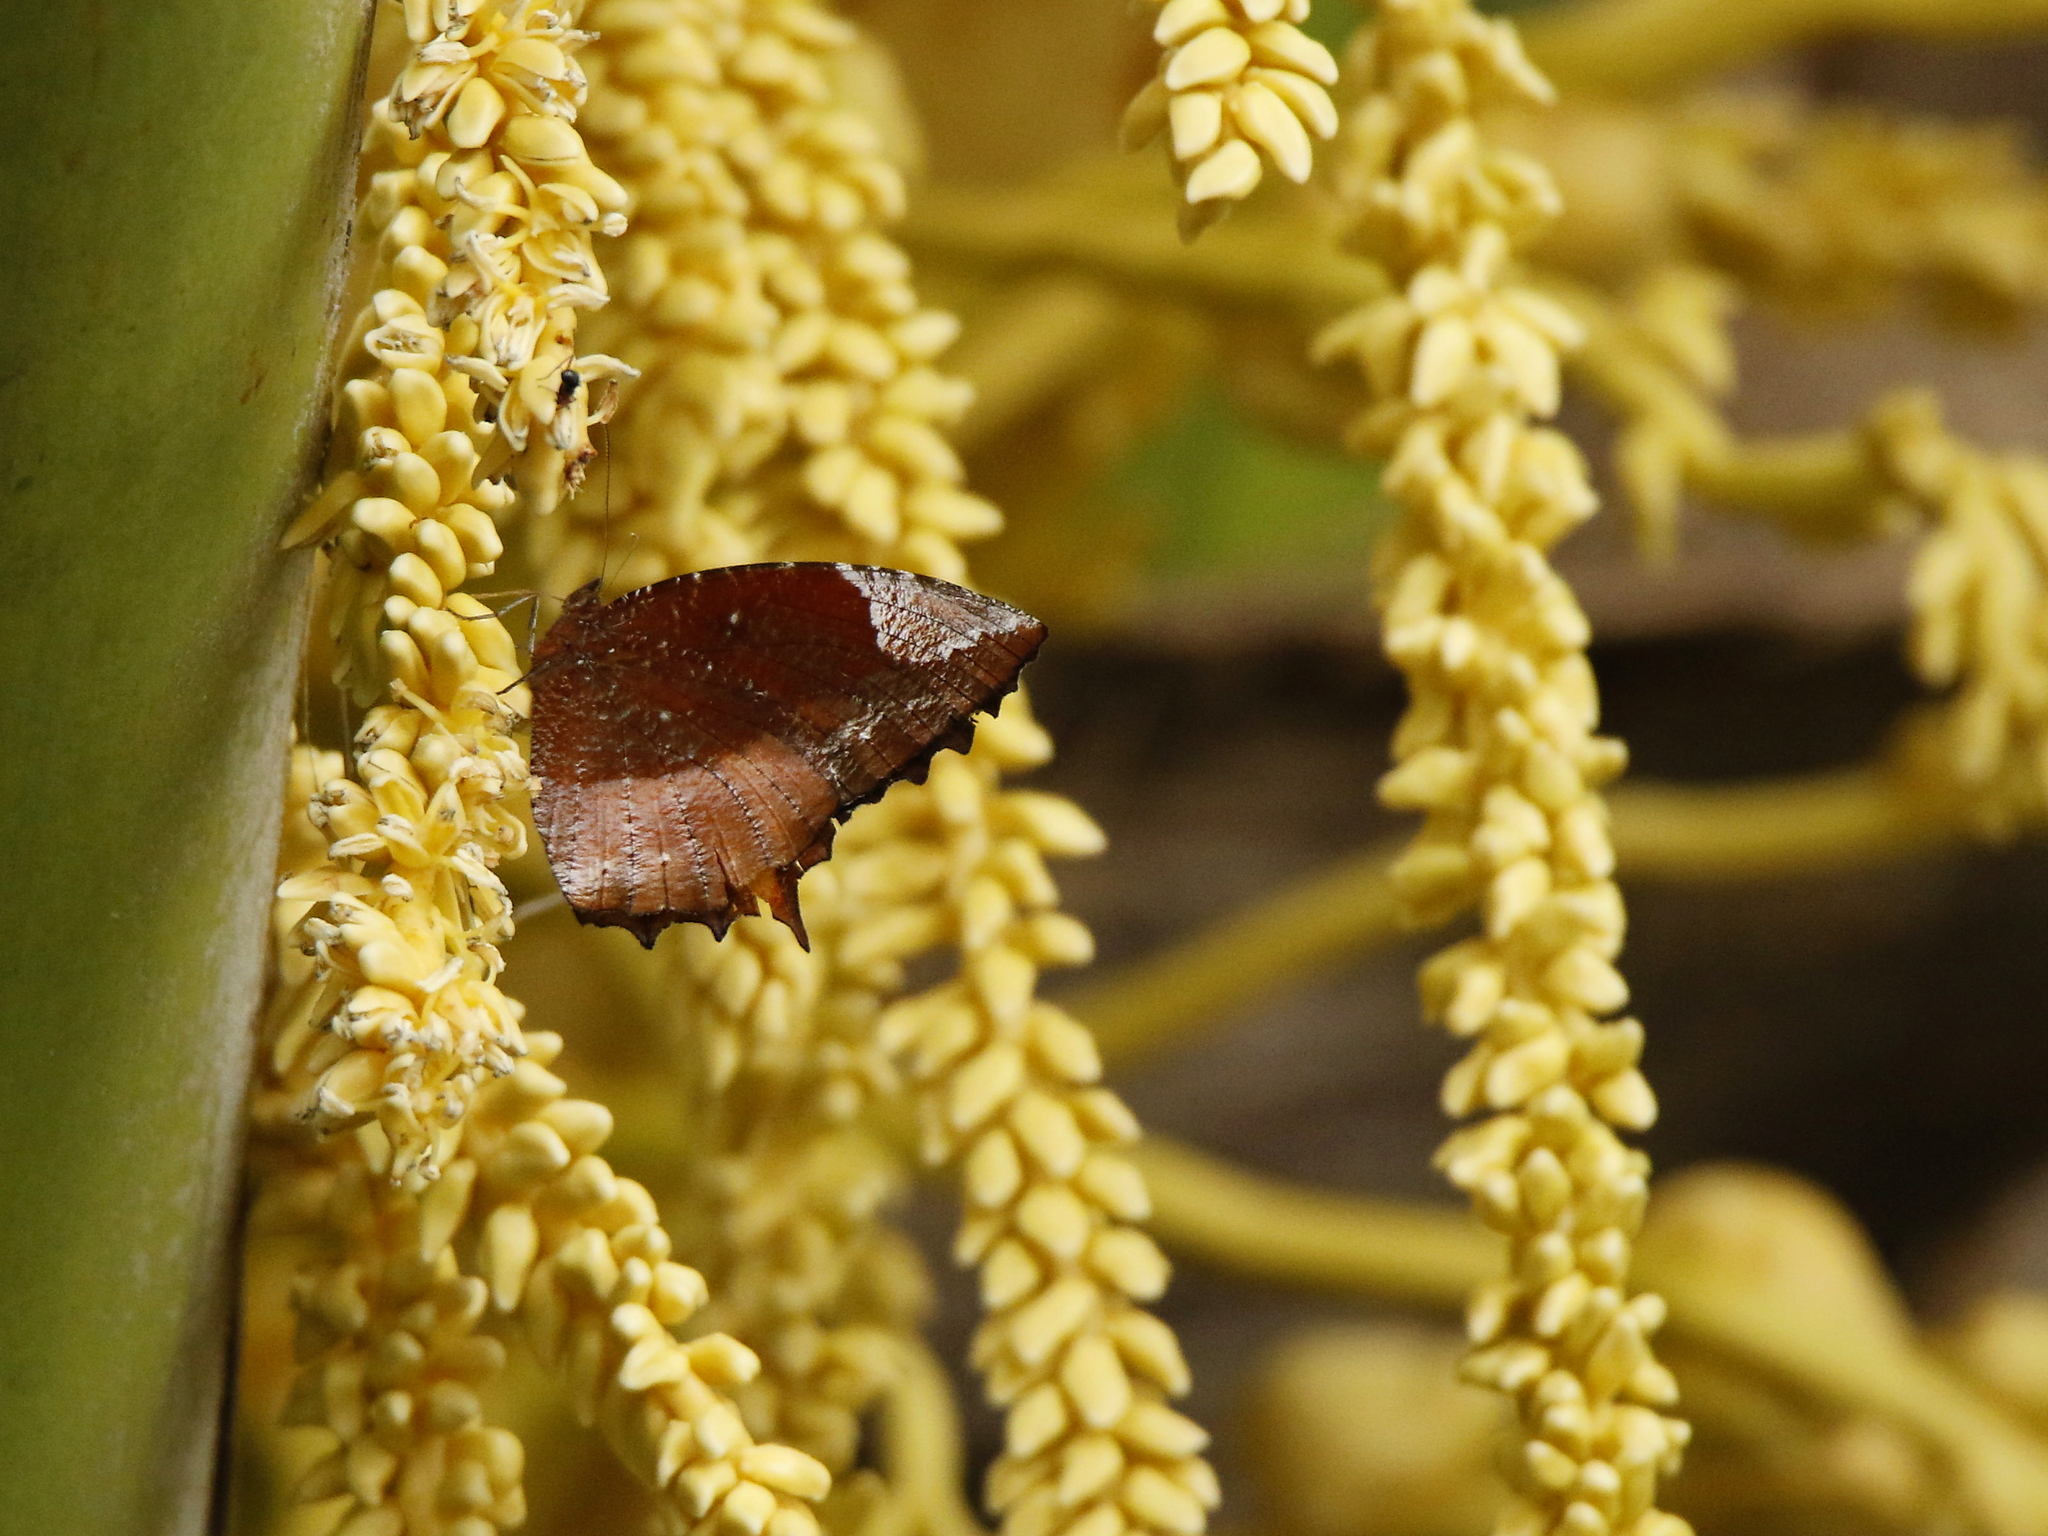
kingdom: Animalia
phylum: Arthropoda
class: Insecta
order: Lepidoptera
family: Nymphalidae
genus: Elymnias
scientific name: Elymnias caudata
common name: Tailed palmfly
